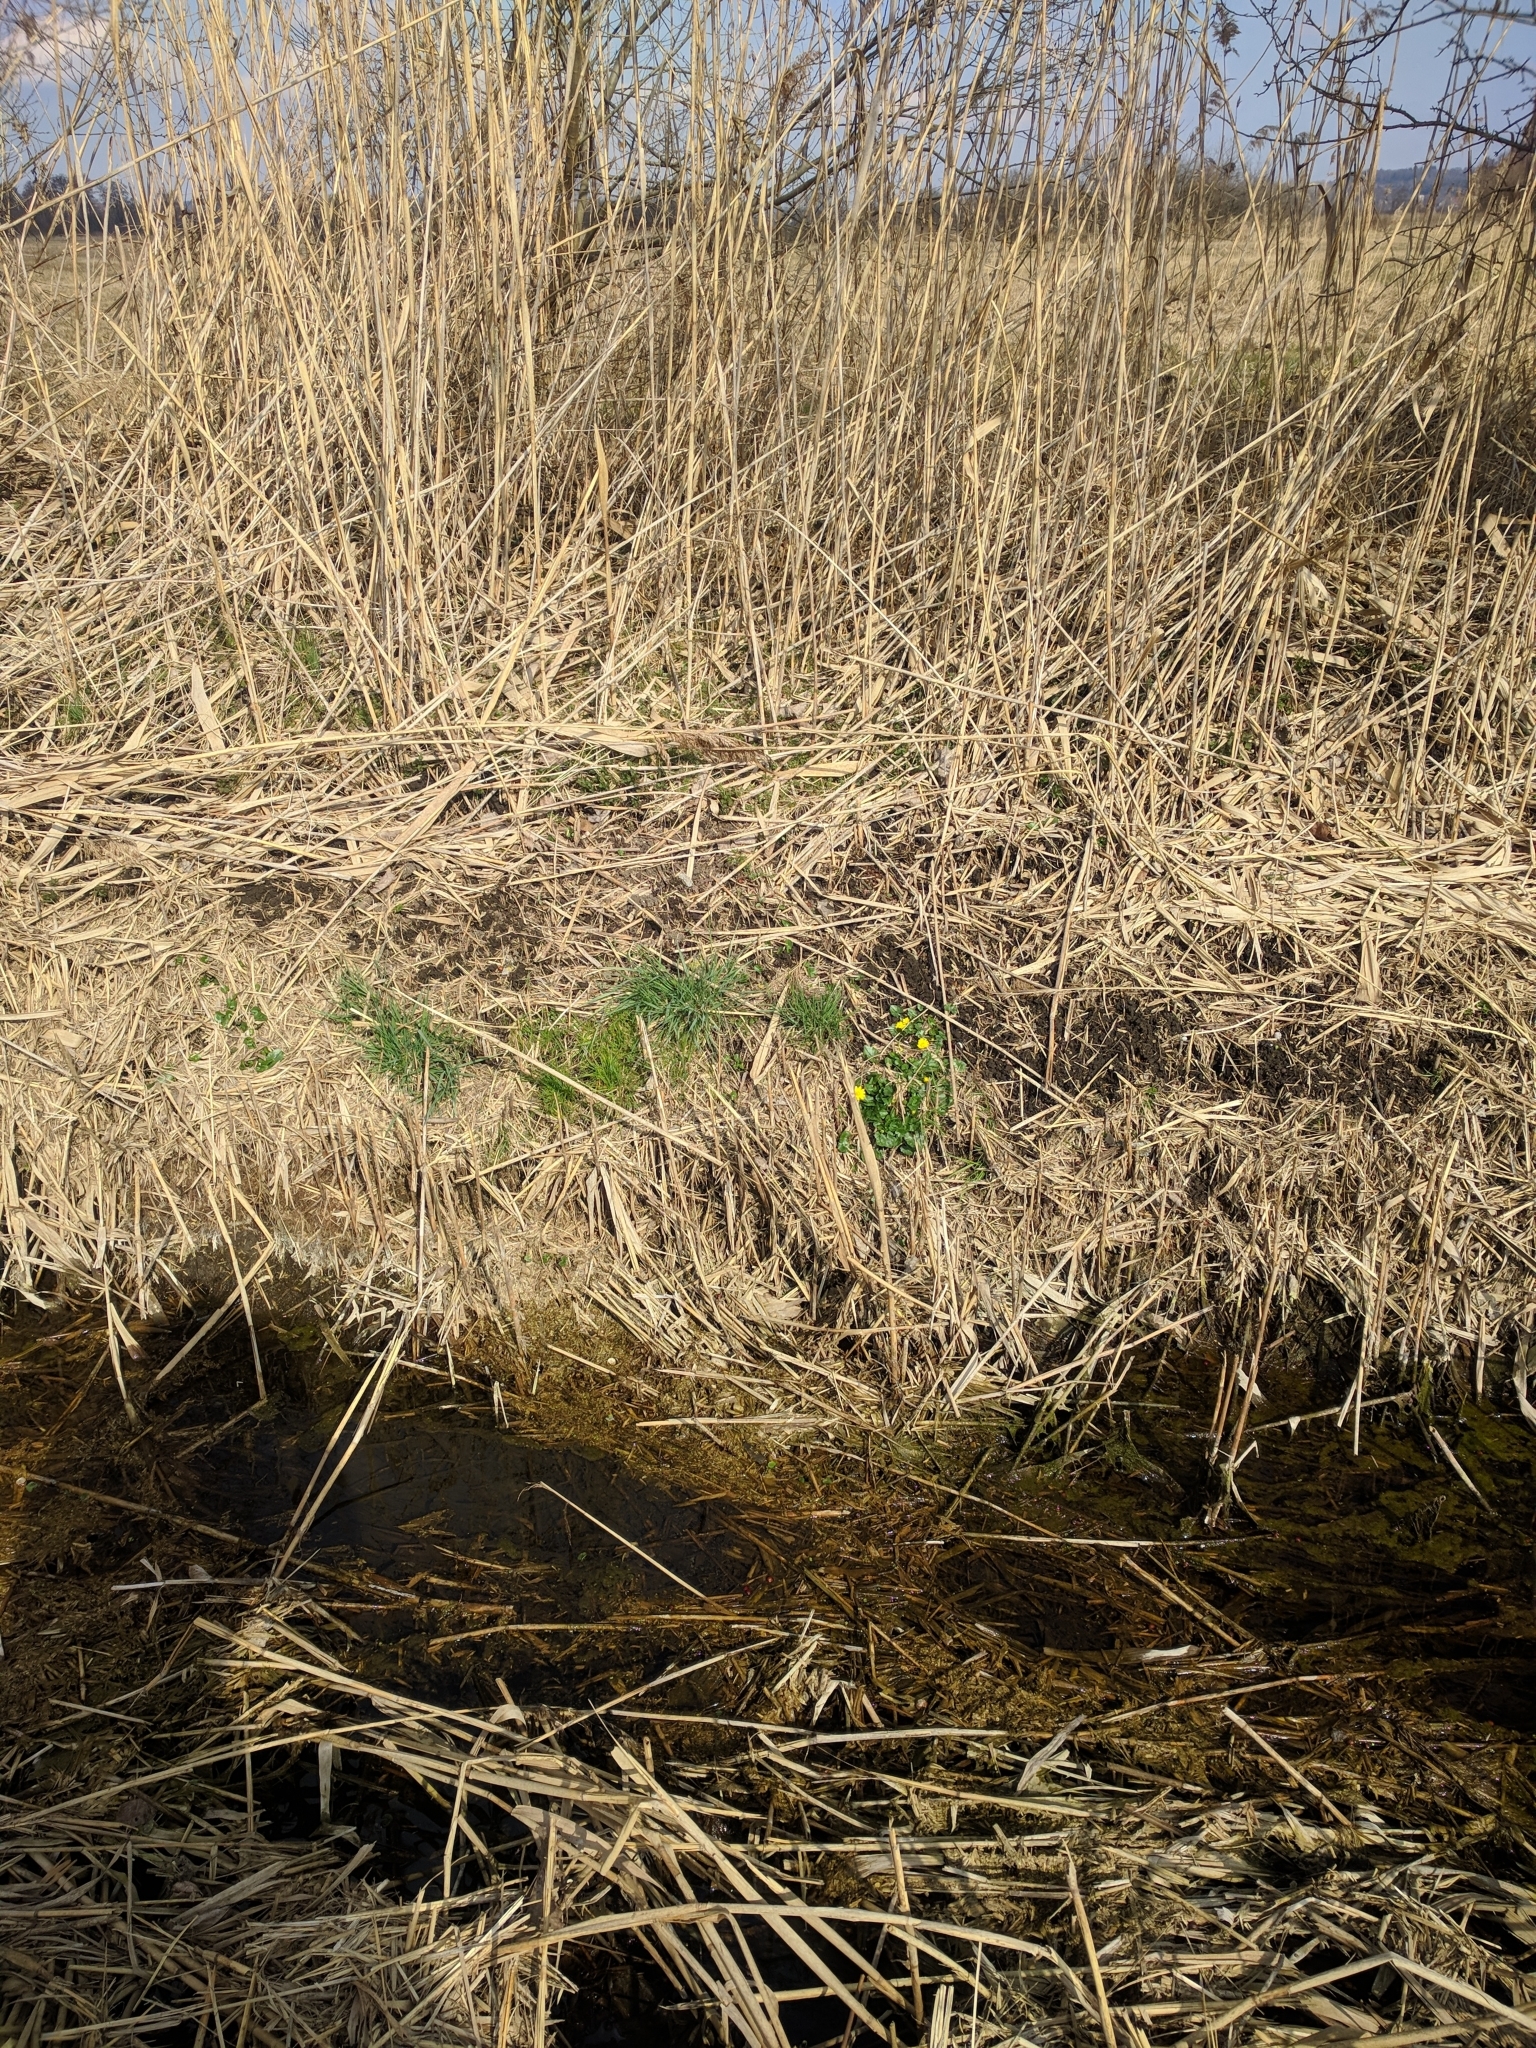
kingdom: Plantae
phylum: Tracheophyta
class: Magnoliopsida
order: Ranunculales
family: Ranunculaceae
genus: Ficaria
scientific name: Ficaria verna
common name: Lesser celandine
